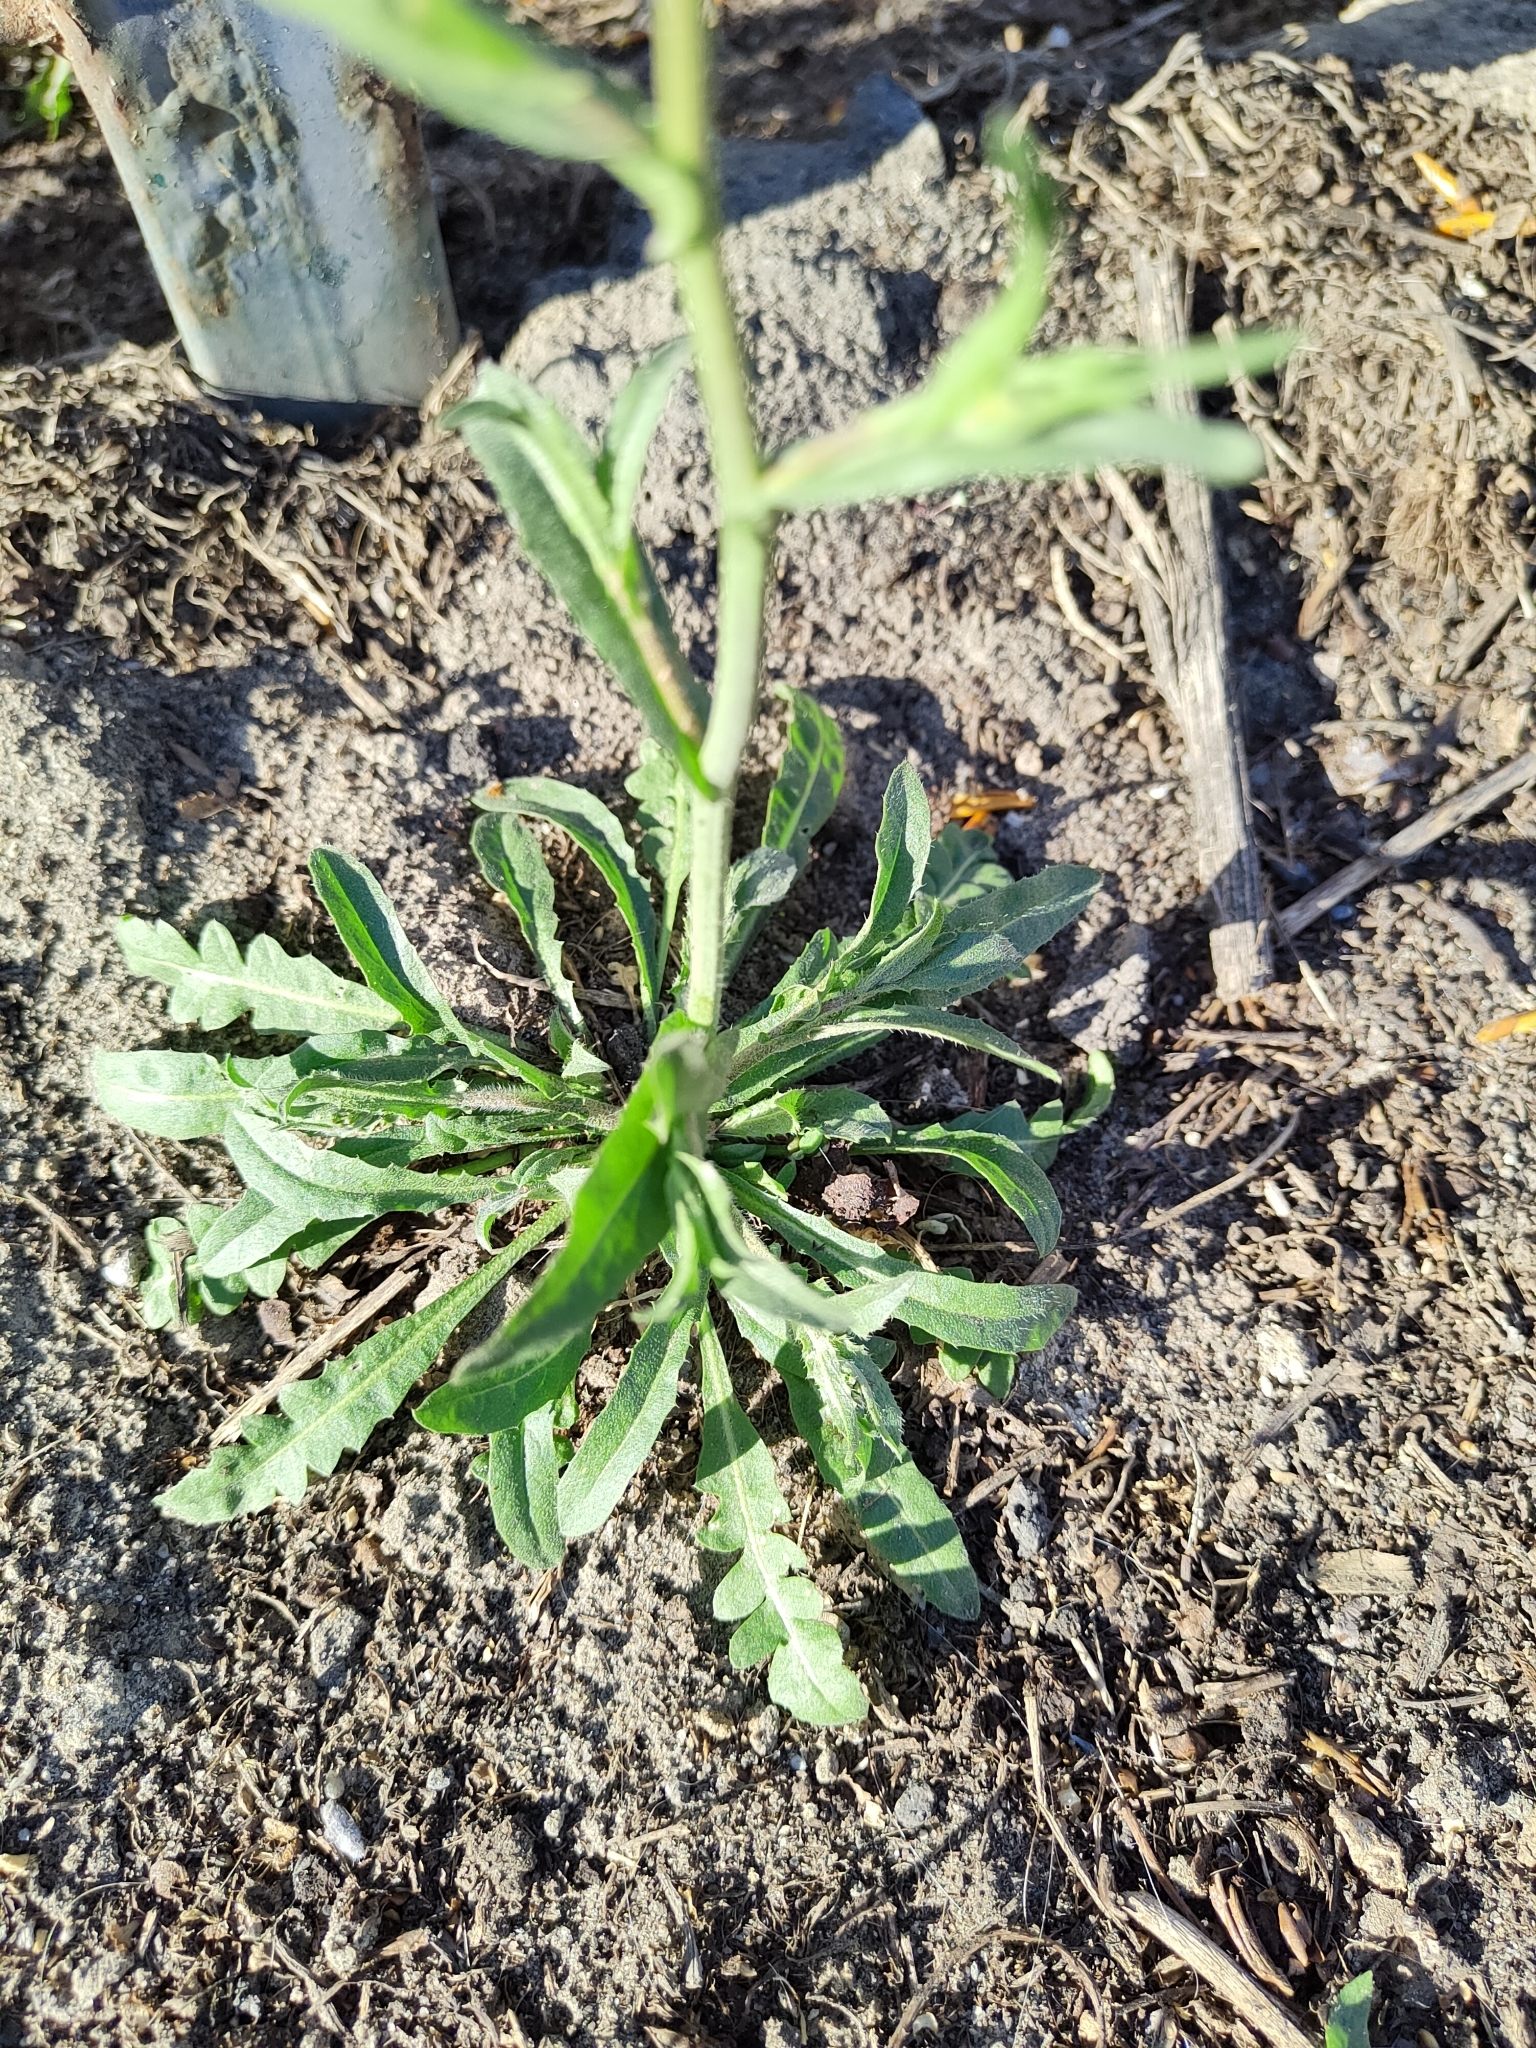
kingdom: Plantae
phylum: Tracheophyta
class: Magnoliopsida
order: Brassicales
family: Brassicaceae
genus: Capsella
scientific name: Capsella bursa-pastoris
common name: Shepherd's purse
